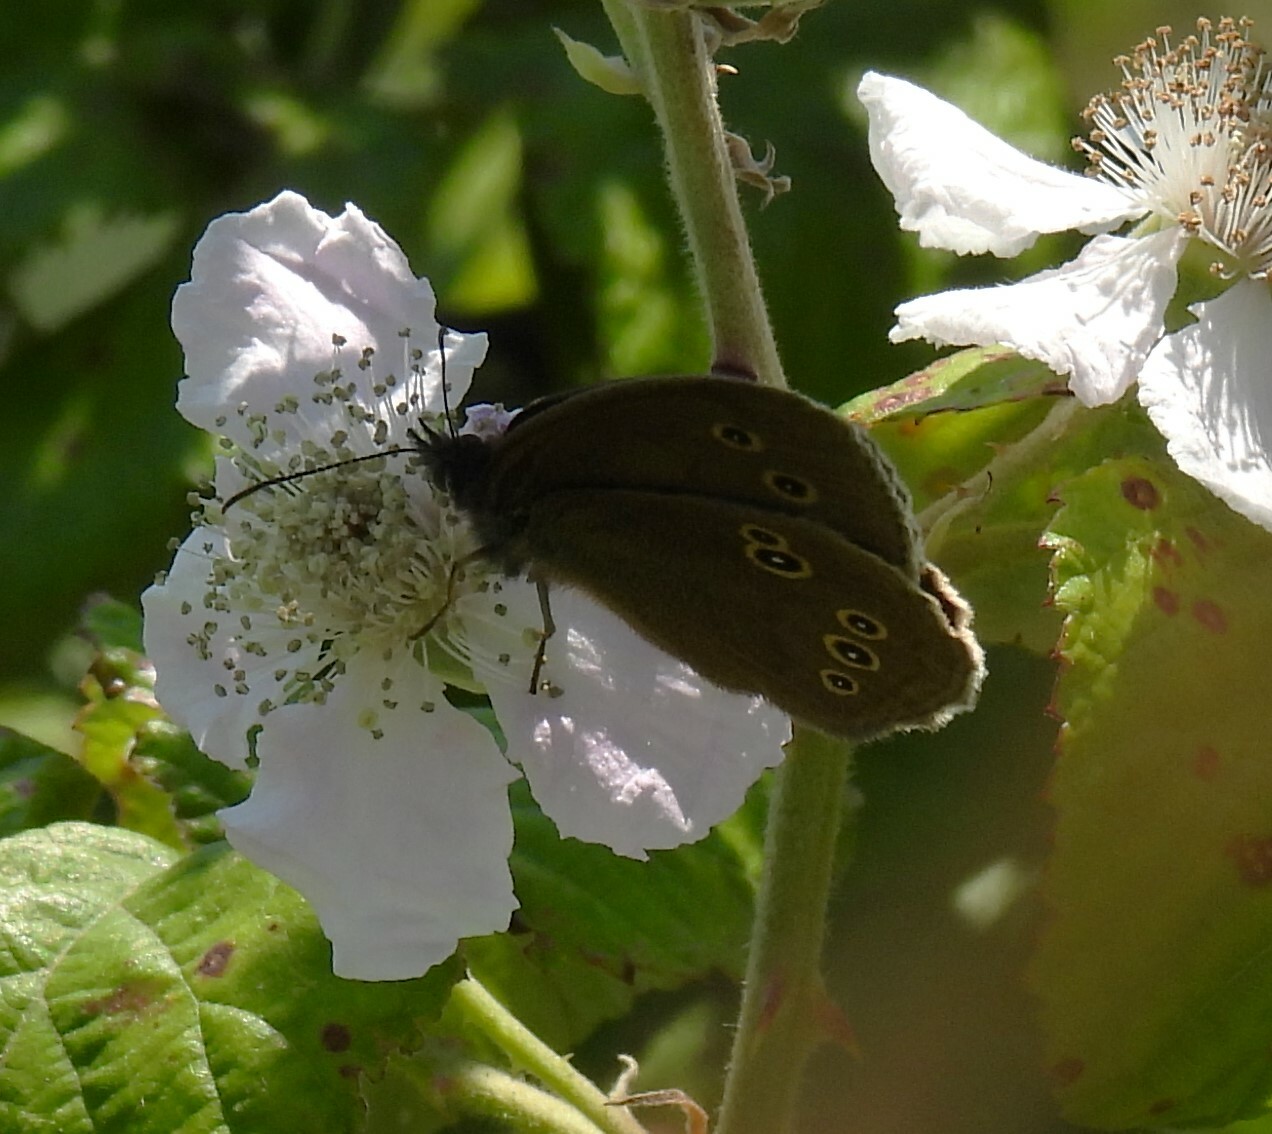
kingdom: Animalia
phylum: Arthropoda
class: Insecta
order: Lepidoptera
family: Nymphalidae
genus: Aphantopus
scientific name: Aphantopus hyperantus
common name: Ringlet
